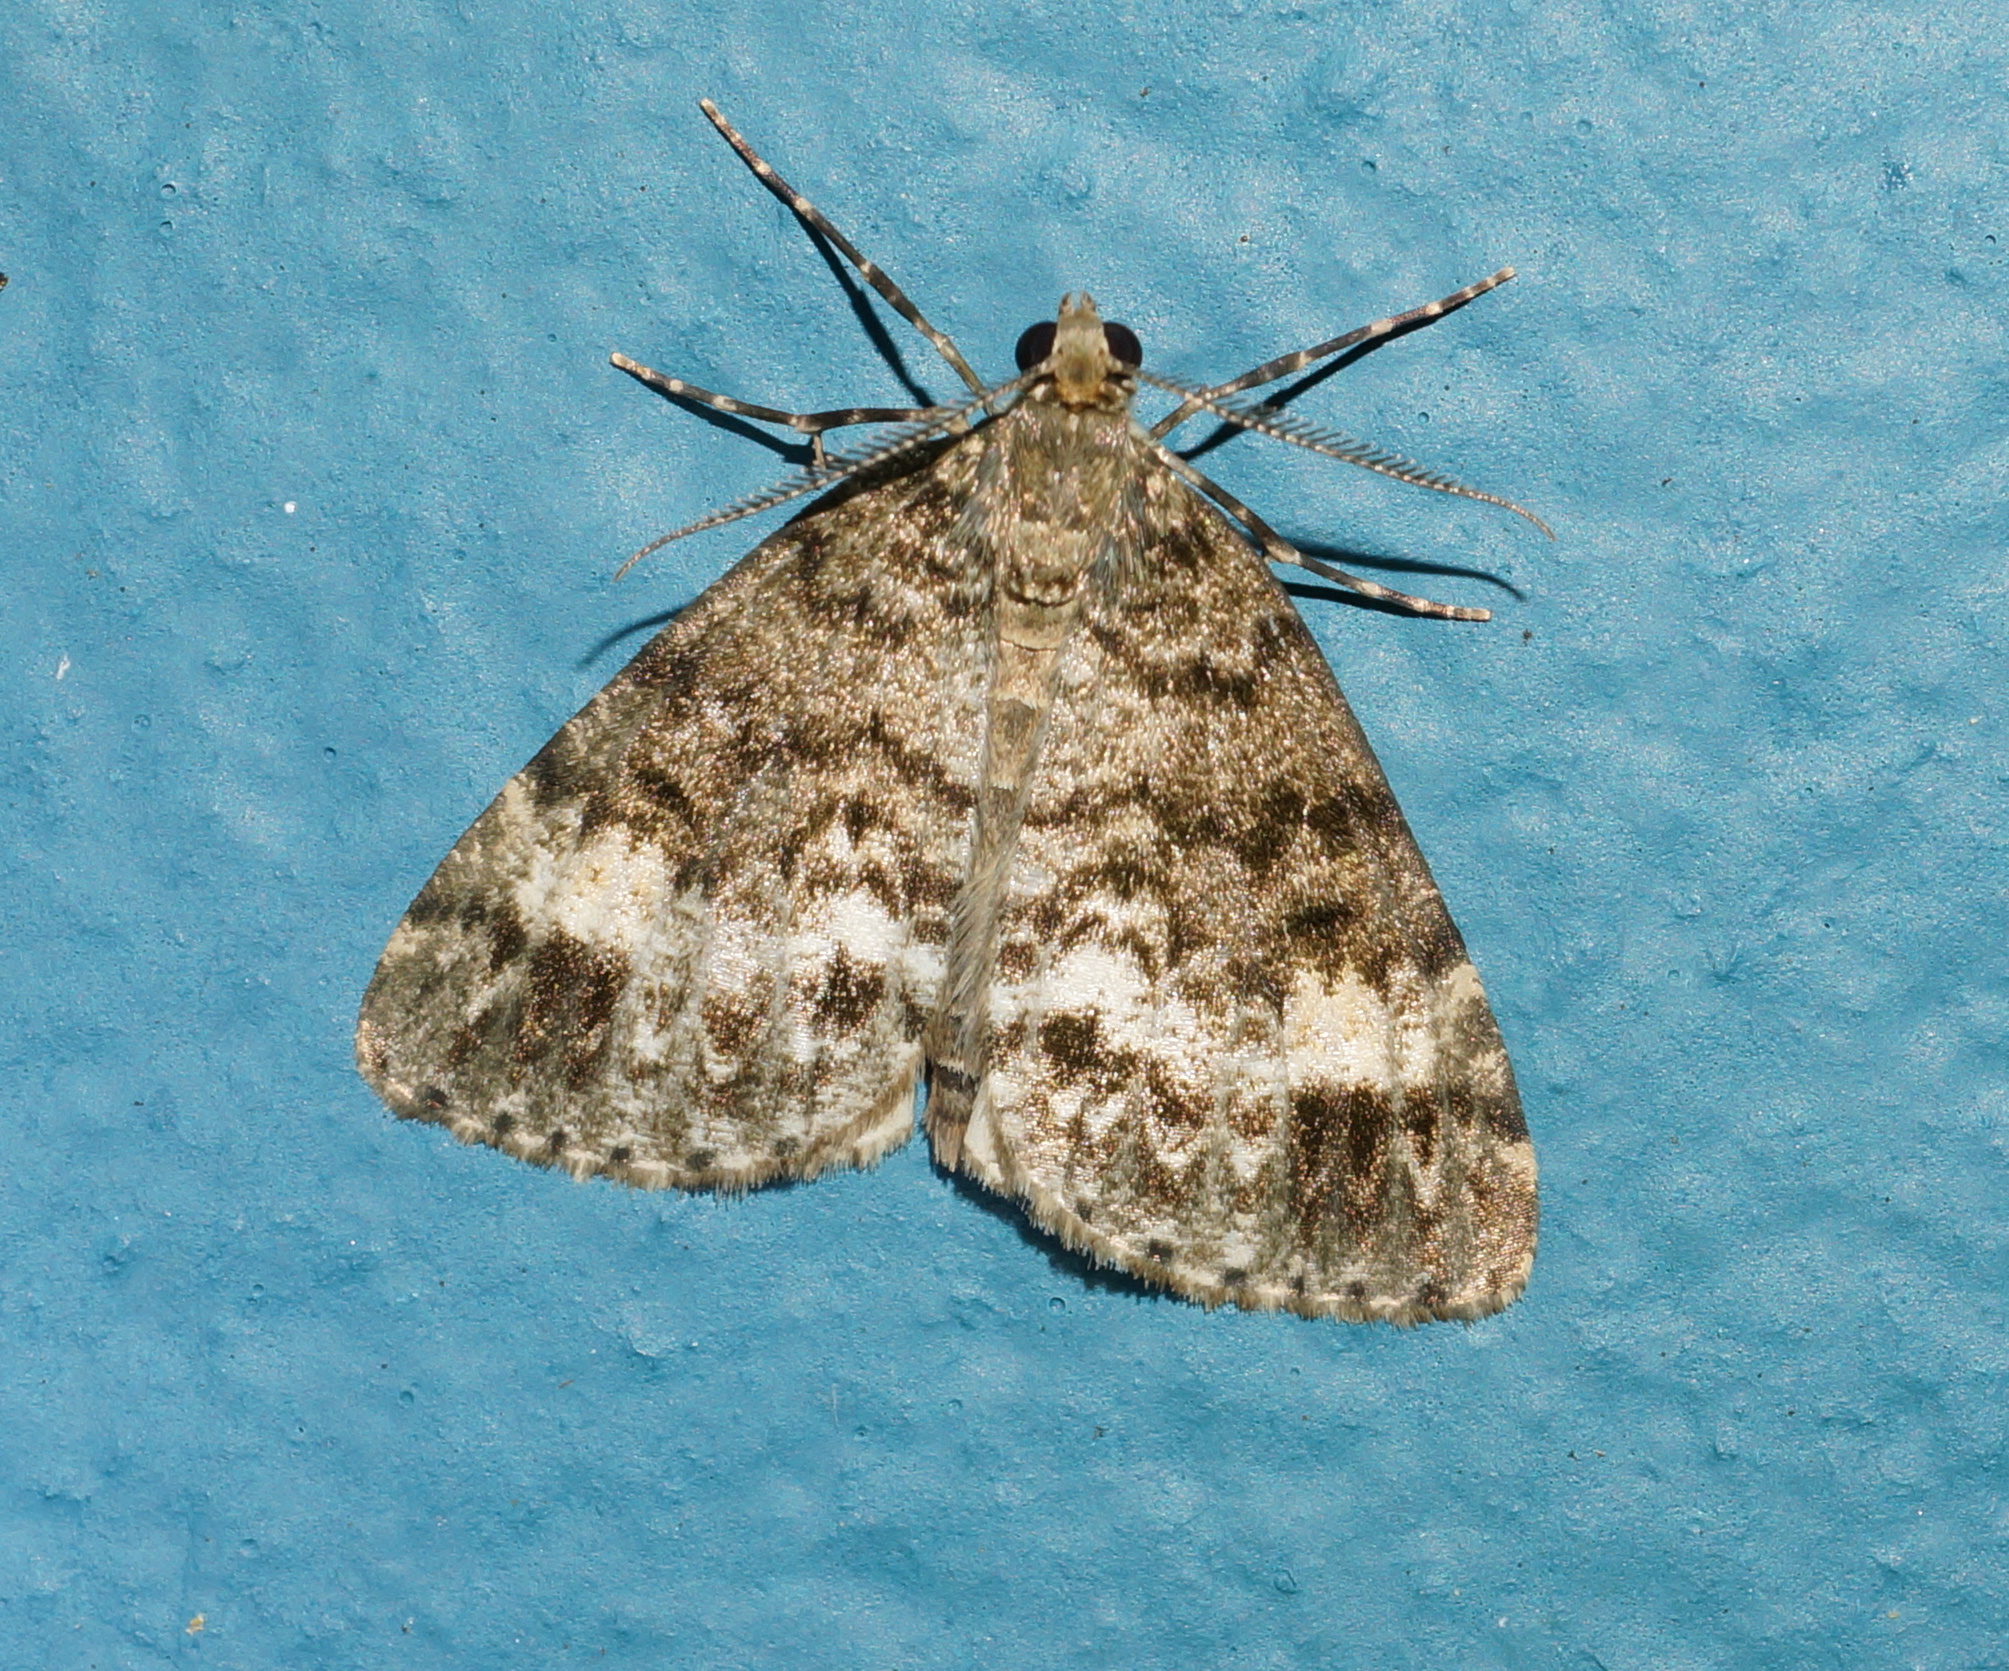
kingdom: Animalia
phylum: Arthropoda
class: Insecta
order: Lepidoptera
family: Geometridae
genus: Pseudocoremia
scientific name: Pseudocoremia indistincta
